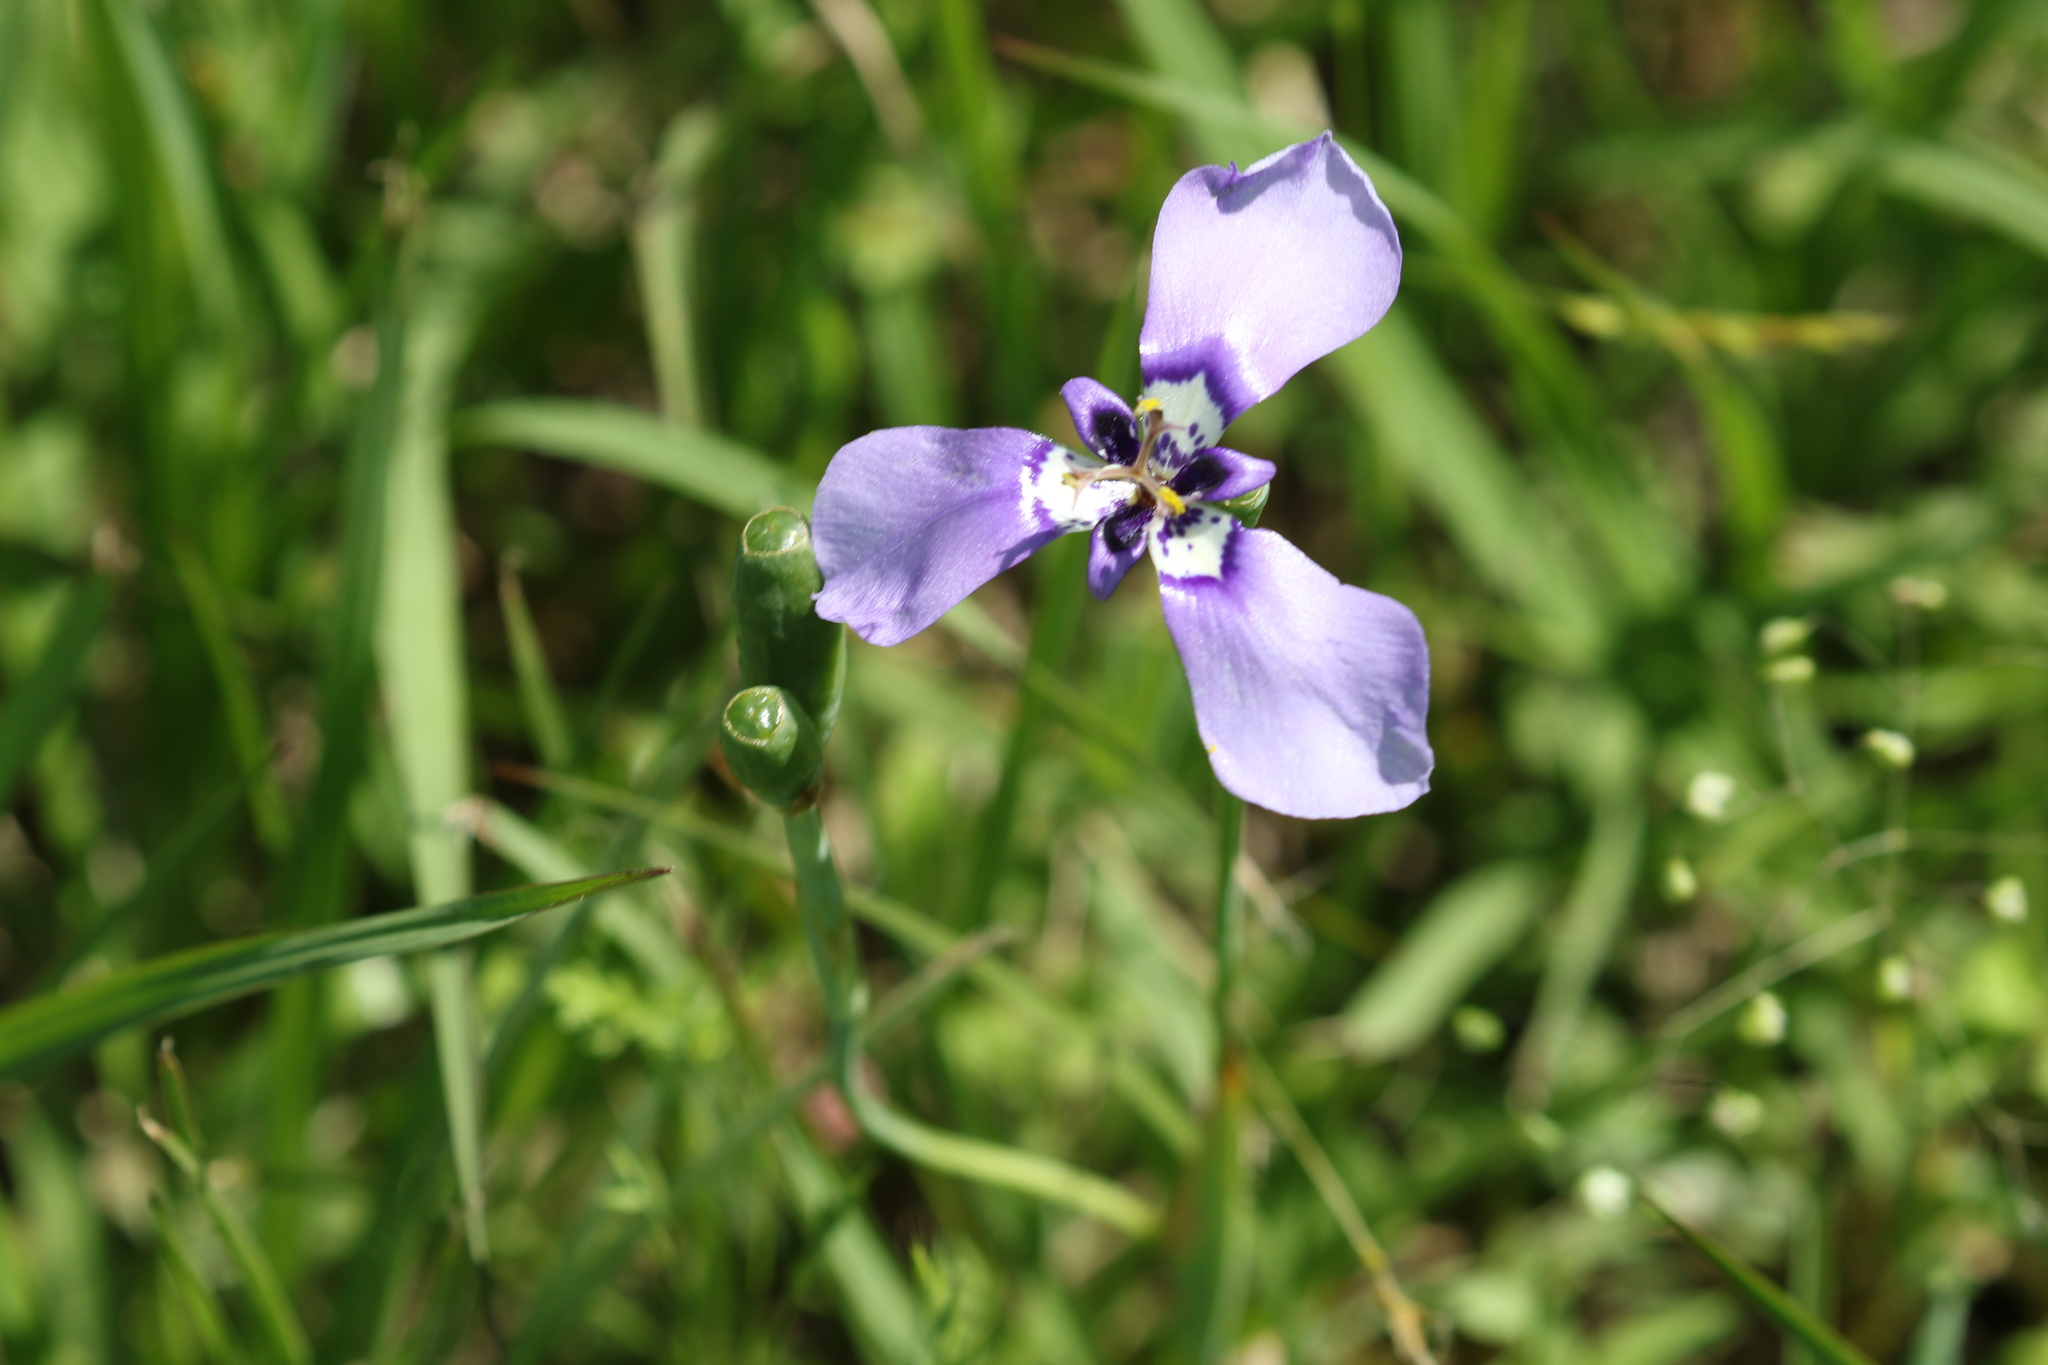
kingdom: Plantae
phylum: Tracheophyta
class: Liliopsida
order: Asparagales
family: Iridaceae
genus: Herbertia
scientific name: Herbertia lahue
